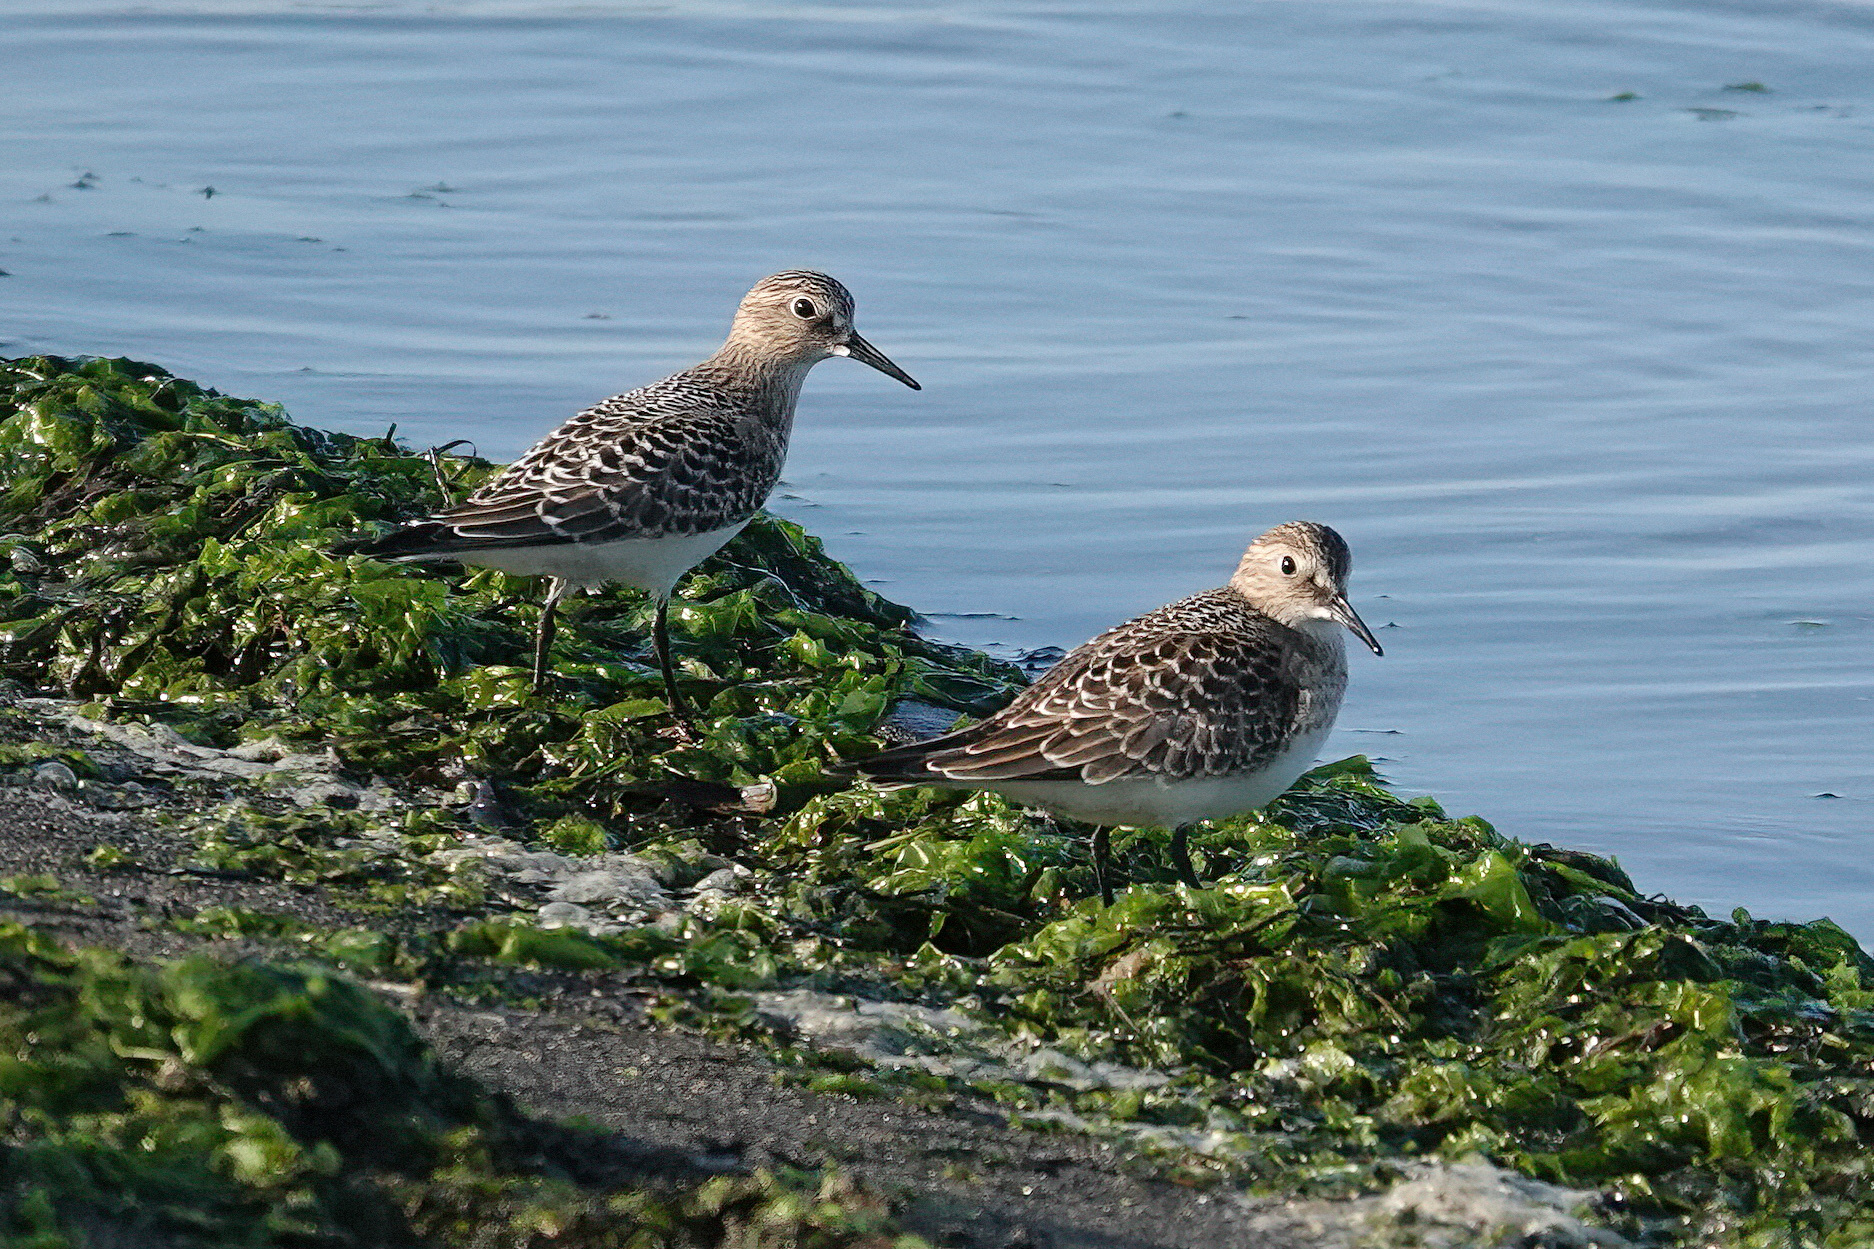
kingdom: Animalia
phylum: Chordata
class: Aves
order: Charadriiformes
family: Scolopacidae
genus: Calidris
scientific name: Calidris bairdii
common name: Baird's sandpiper
